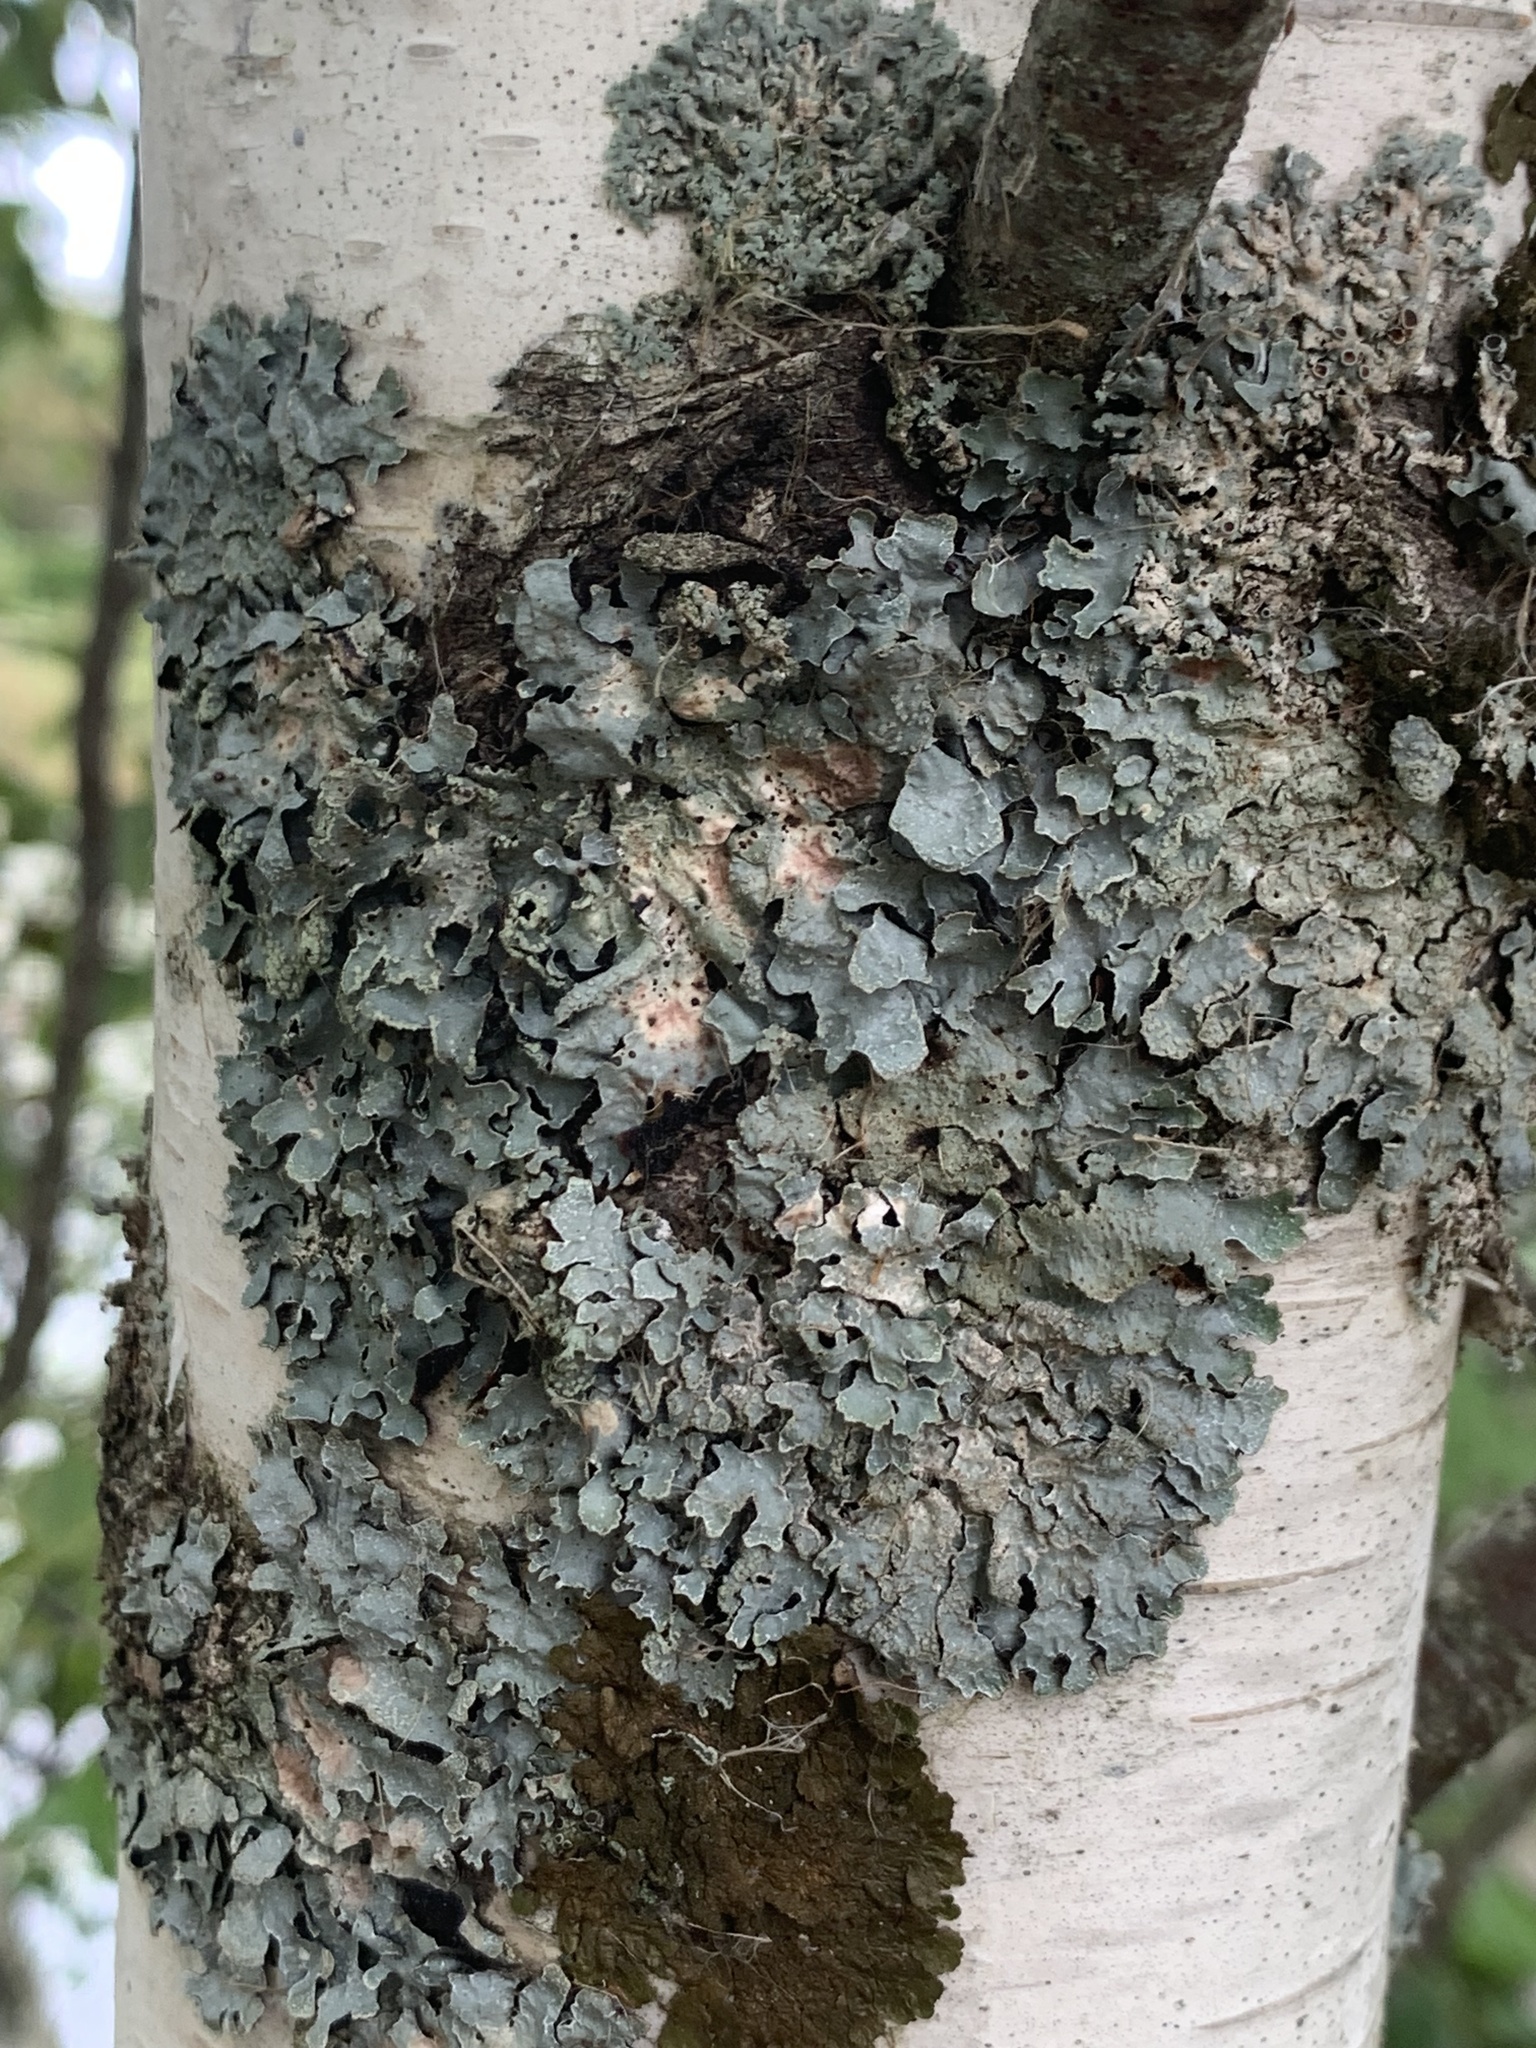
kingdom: Fungi
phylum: Ascomycota
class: Lecanoromycetes
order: Lecanorales
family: Parmeliaceae
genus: Parmelia
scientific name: Parmelia sulcata
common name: Netted shield lichen
